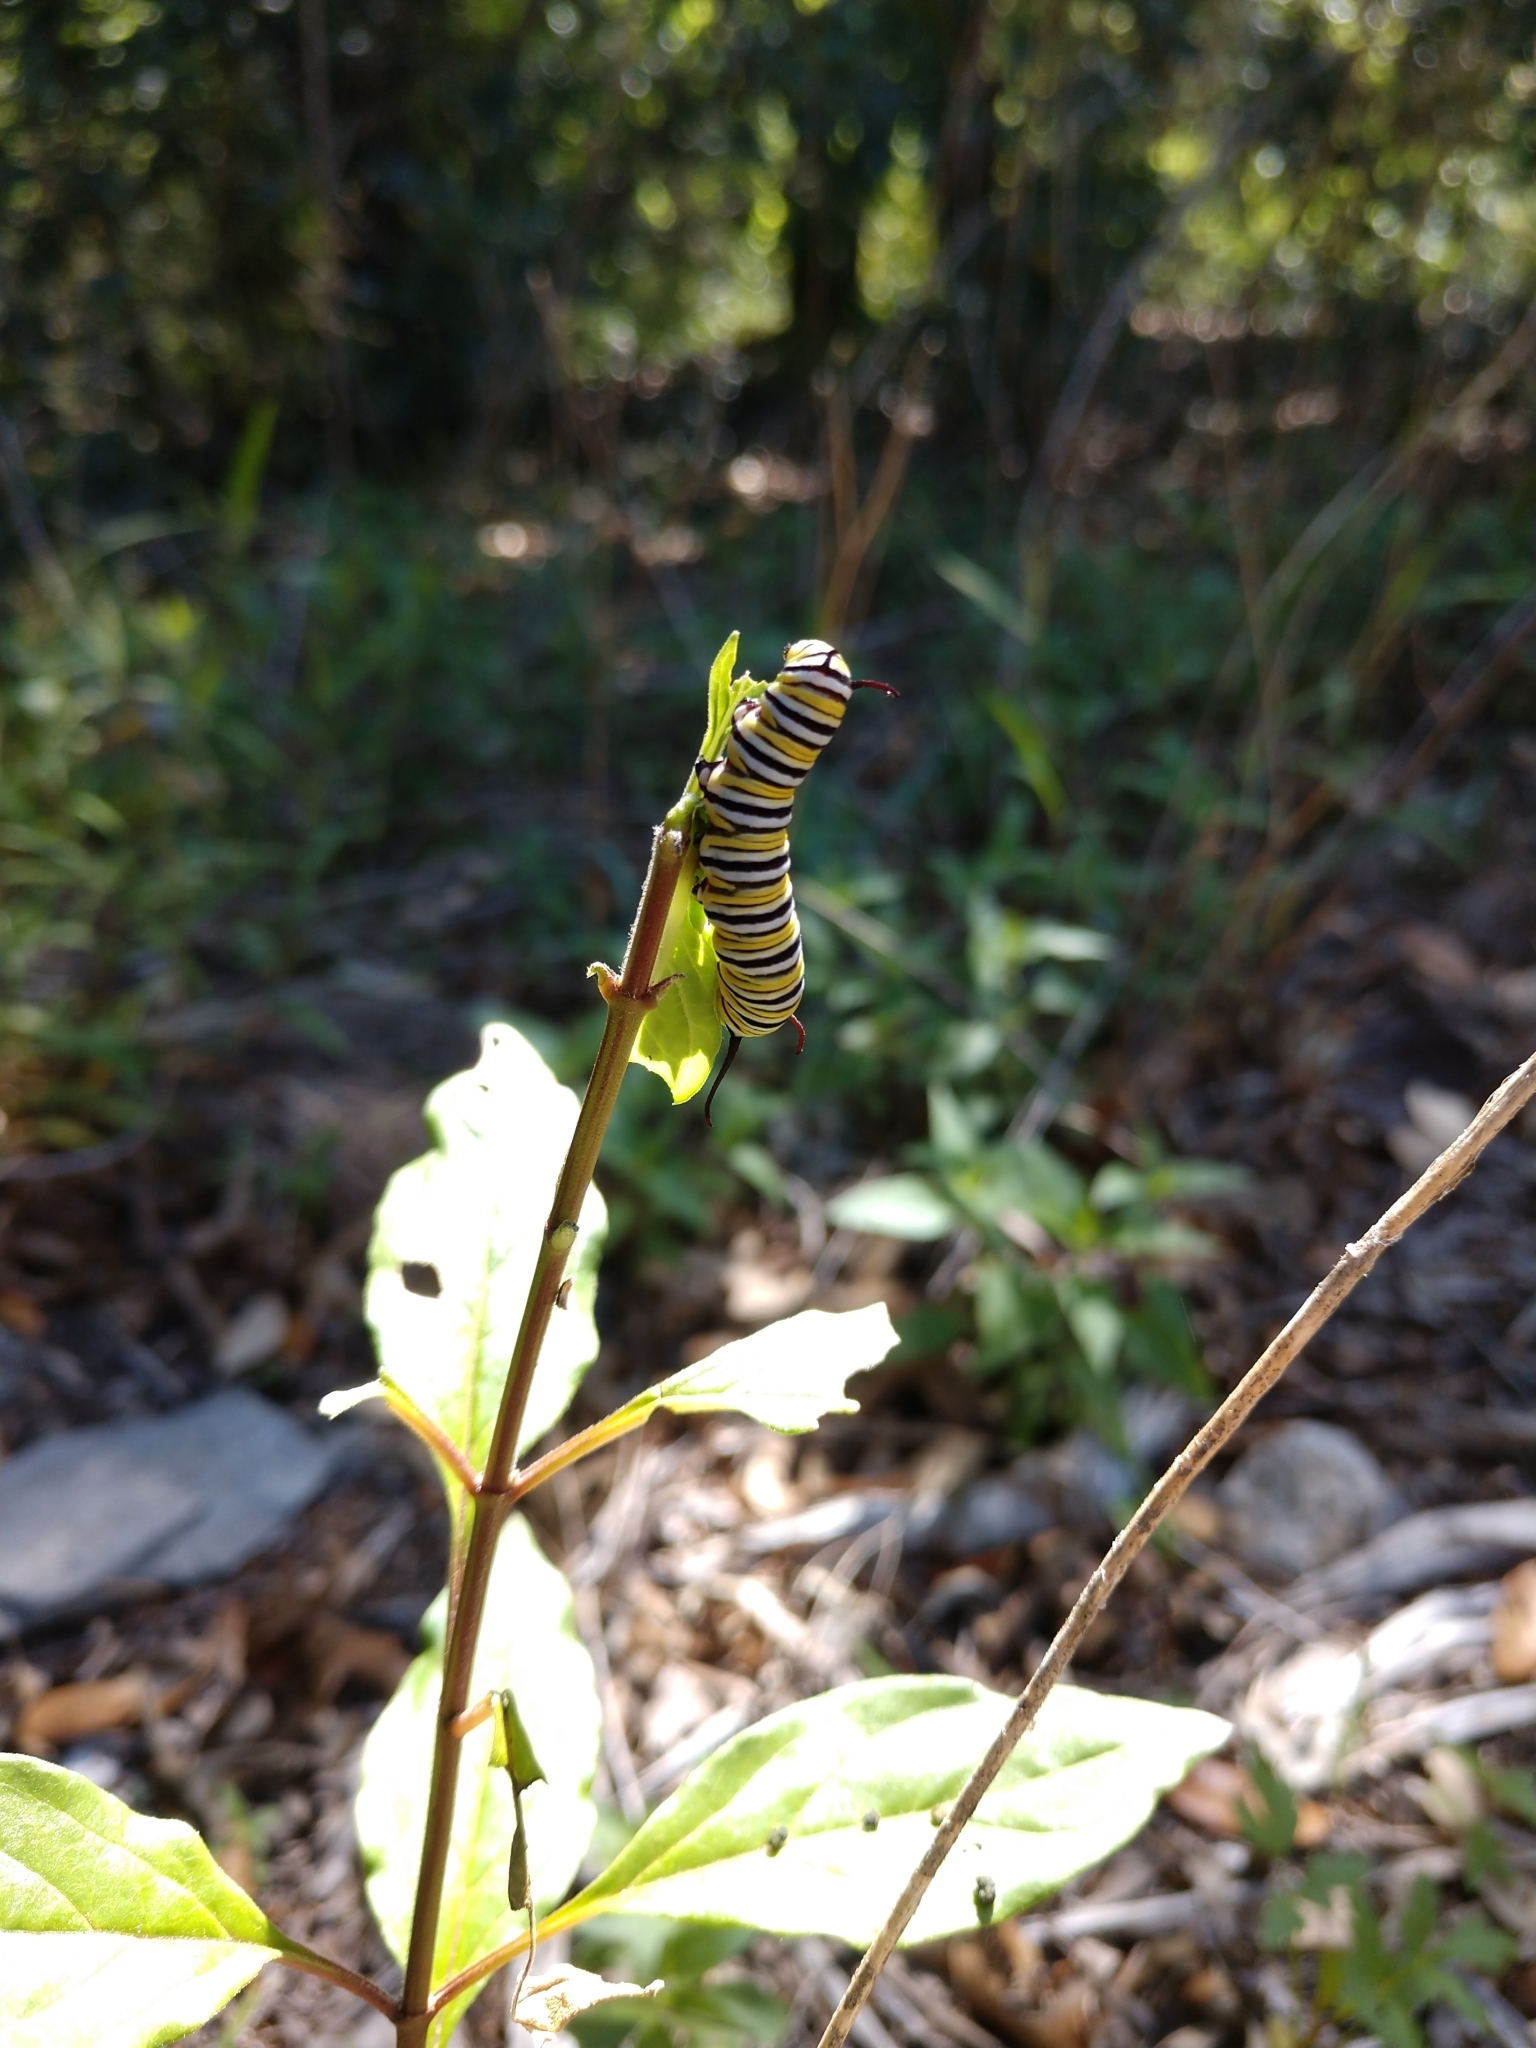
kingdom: Animalia
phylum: Arthropoda
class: Insecta
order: Lepidoptera
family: Nymphalidae
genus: Danaus
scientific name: Danaus plexippus
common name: Monarch
